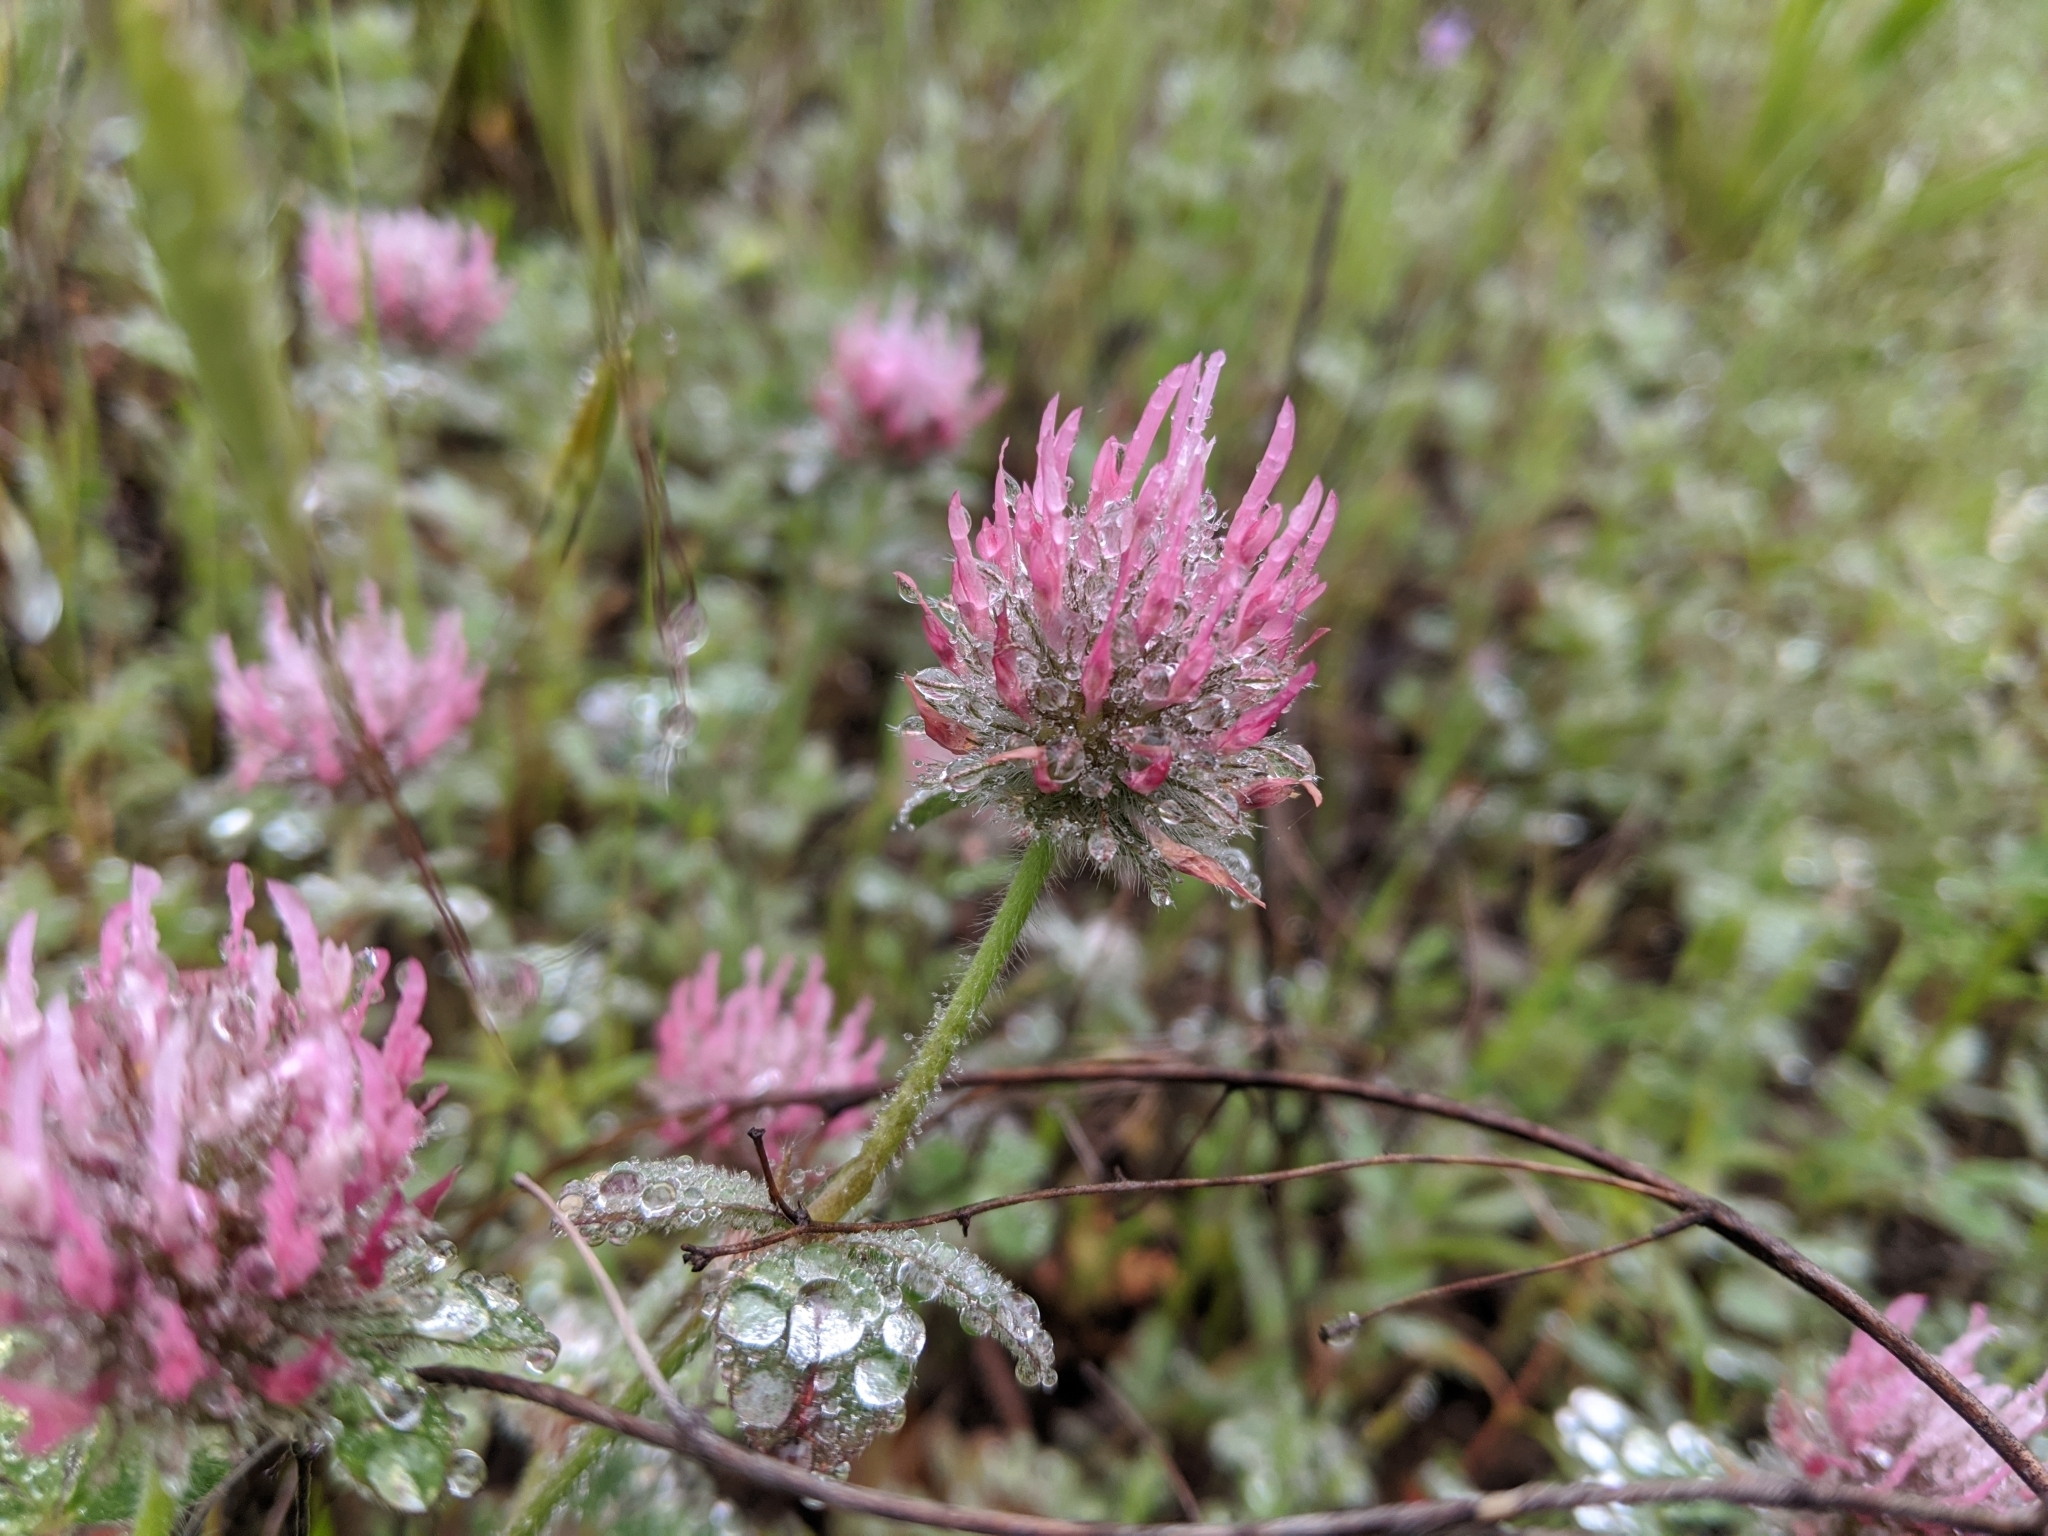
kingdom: Plantae
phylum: Tracheophyta
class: Magnoliopsida
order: Fabales
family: Fabaceae
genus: Trifolium
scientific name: Trifolium hirtum
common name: Rose clover
